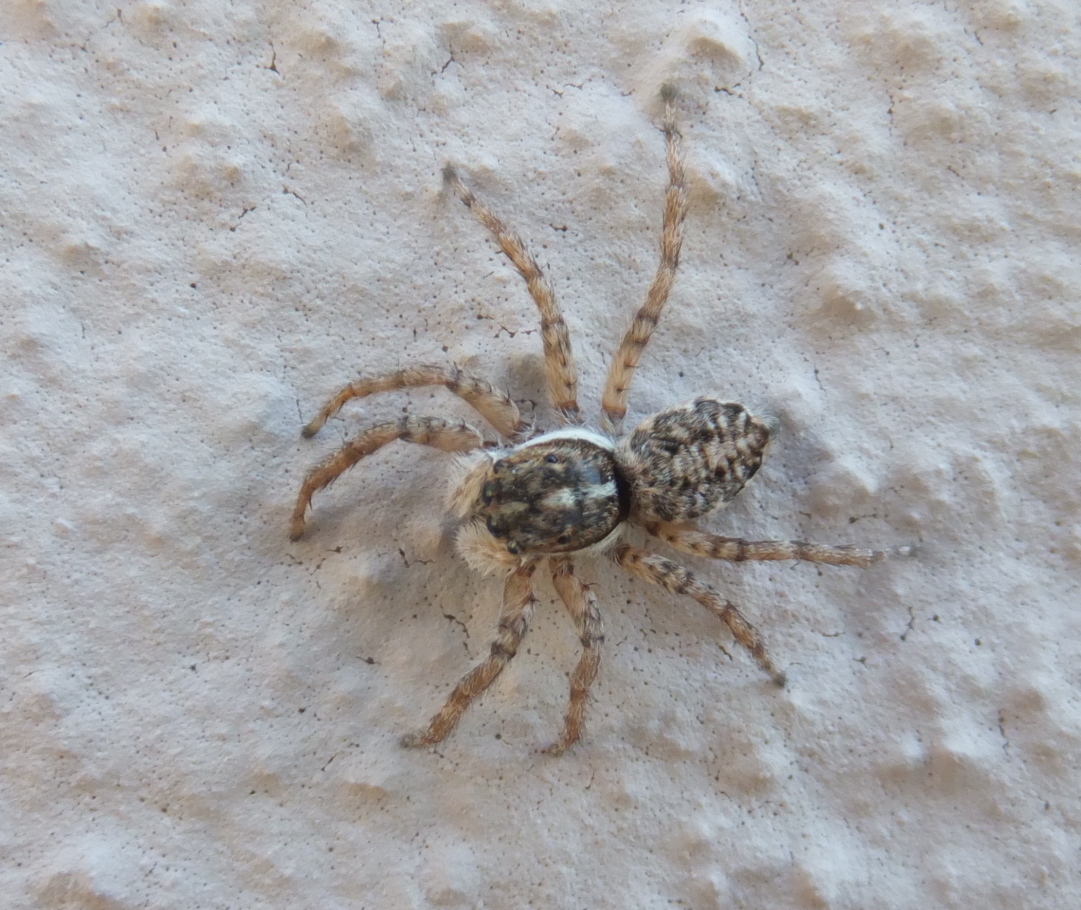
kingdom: Animalia
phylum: Arthropoda
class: Arachnida
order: Araneae
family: Salticidae
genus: Menemerus
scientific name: Menemerus semilimbatus
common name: Jumping spider
